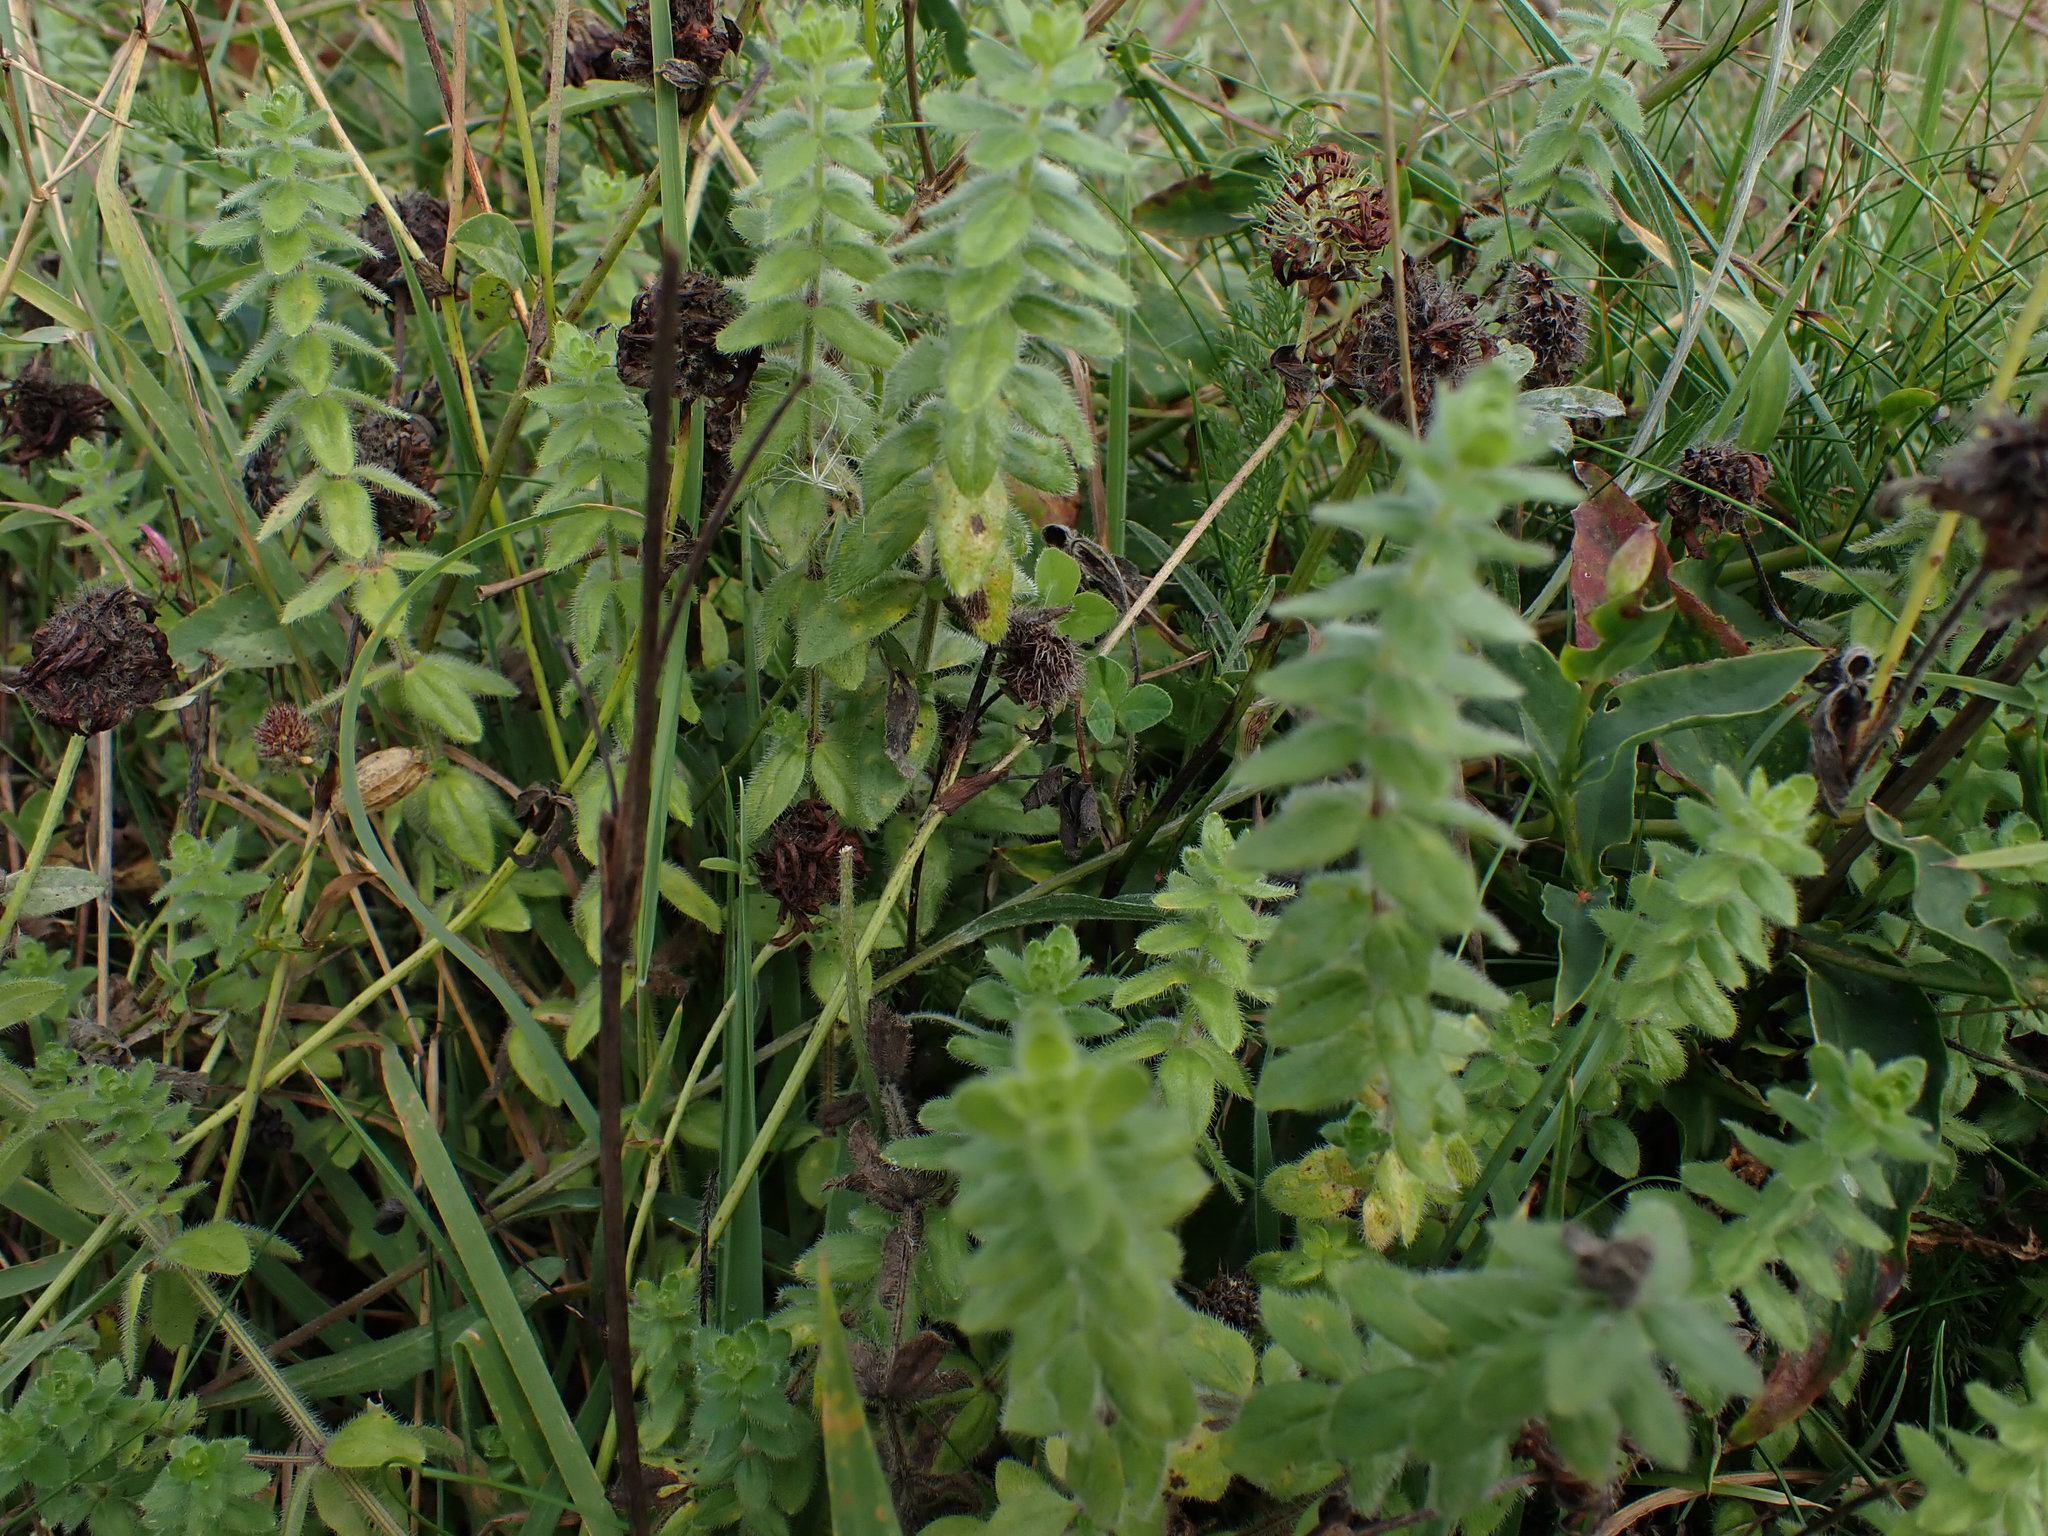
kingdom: Plantae
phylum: Tracheophyta
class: Magnoliopsida
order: Gentianales
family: Rubiaceae
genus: Cruciata
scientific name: Cruciata laevipes
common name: Crosswort
